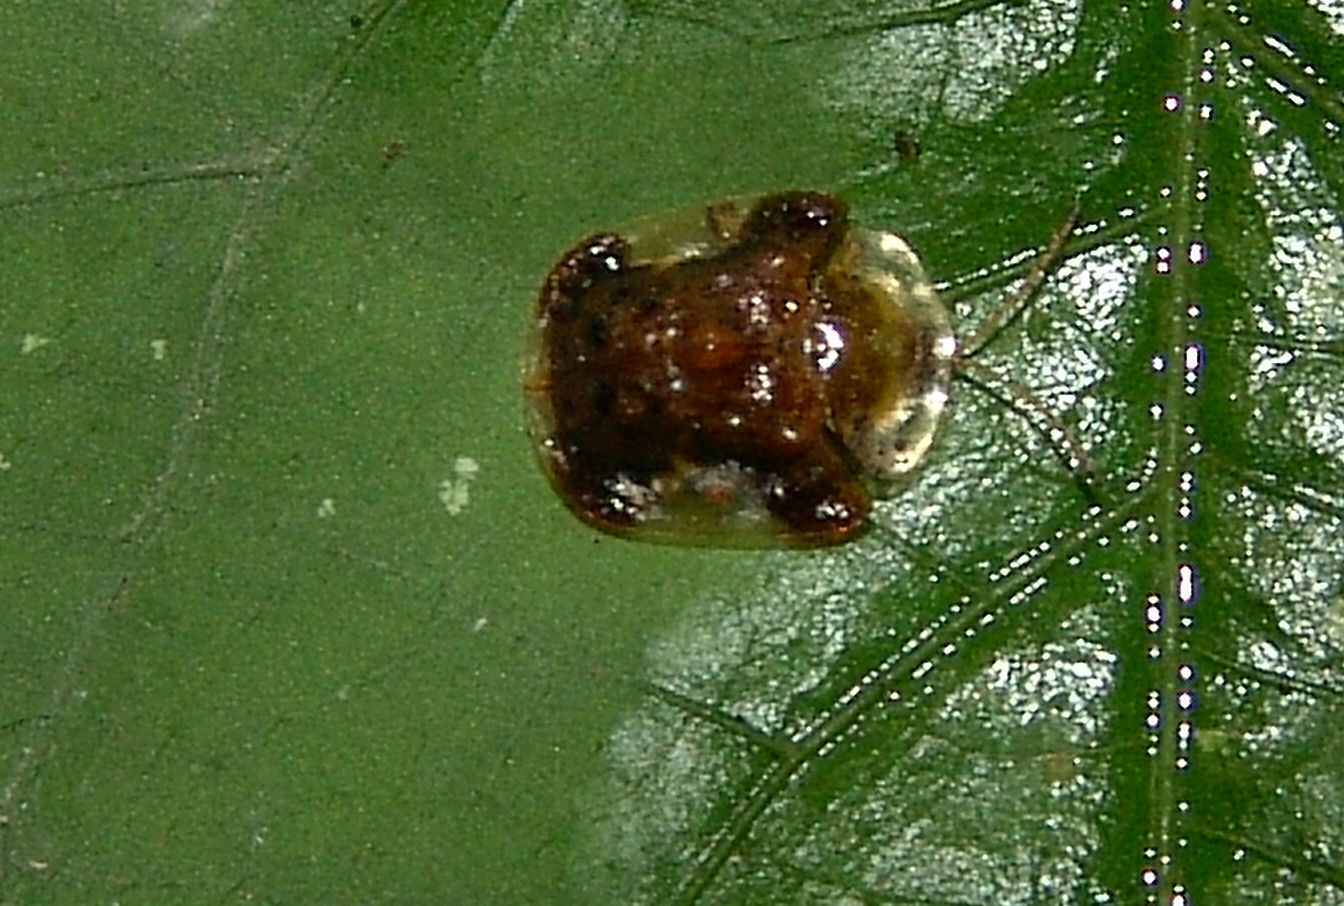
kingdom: Animalia
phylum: Arthropoda
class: Insecta
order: Coleoptera
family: Chrysomelidae
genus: Helocassis
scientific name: Helocassis clavata
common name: Clavate tortoise beetle
